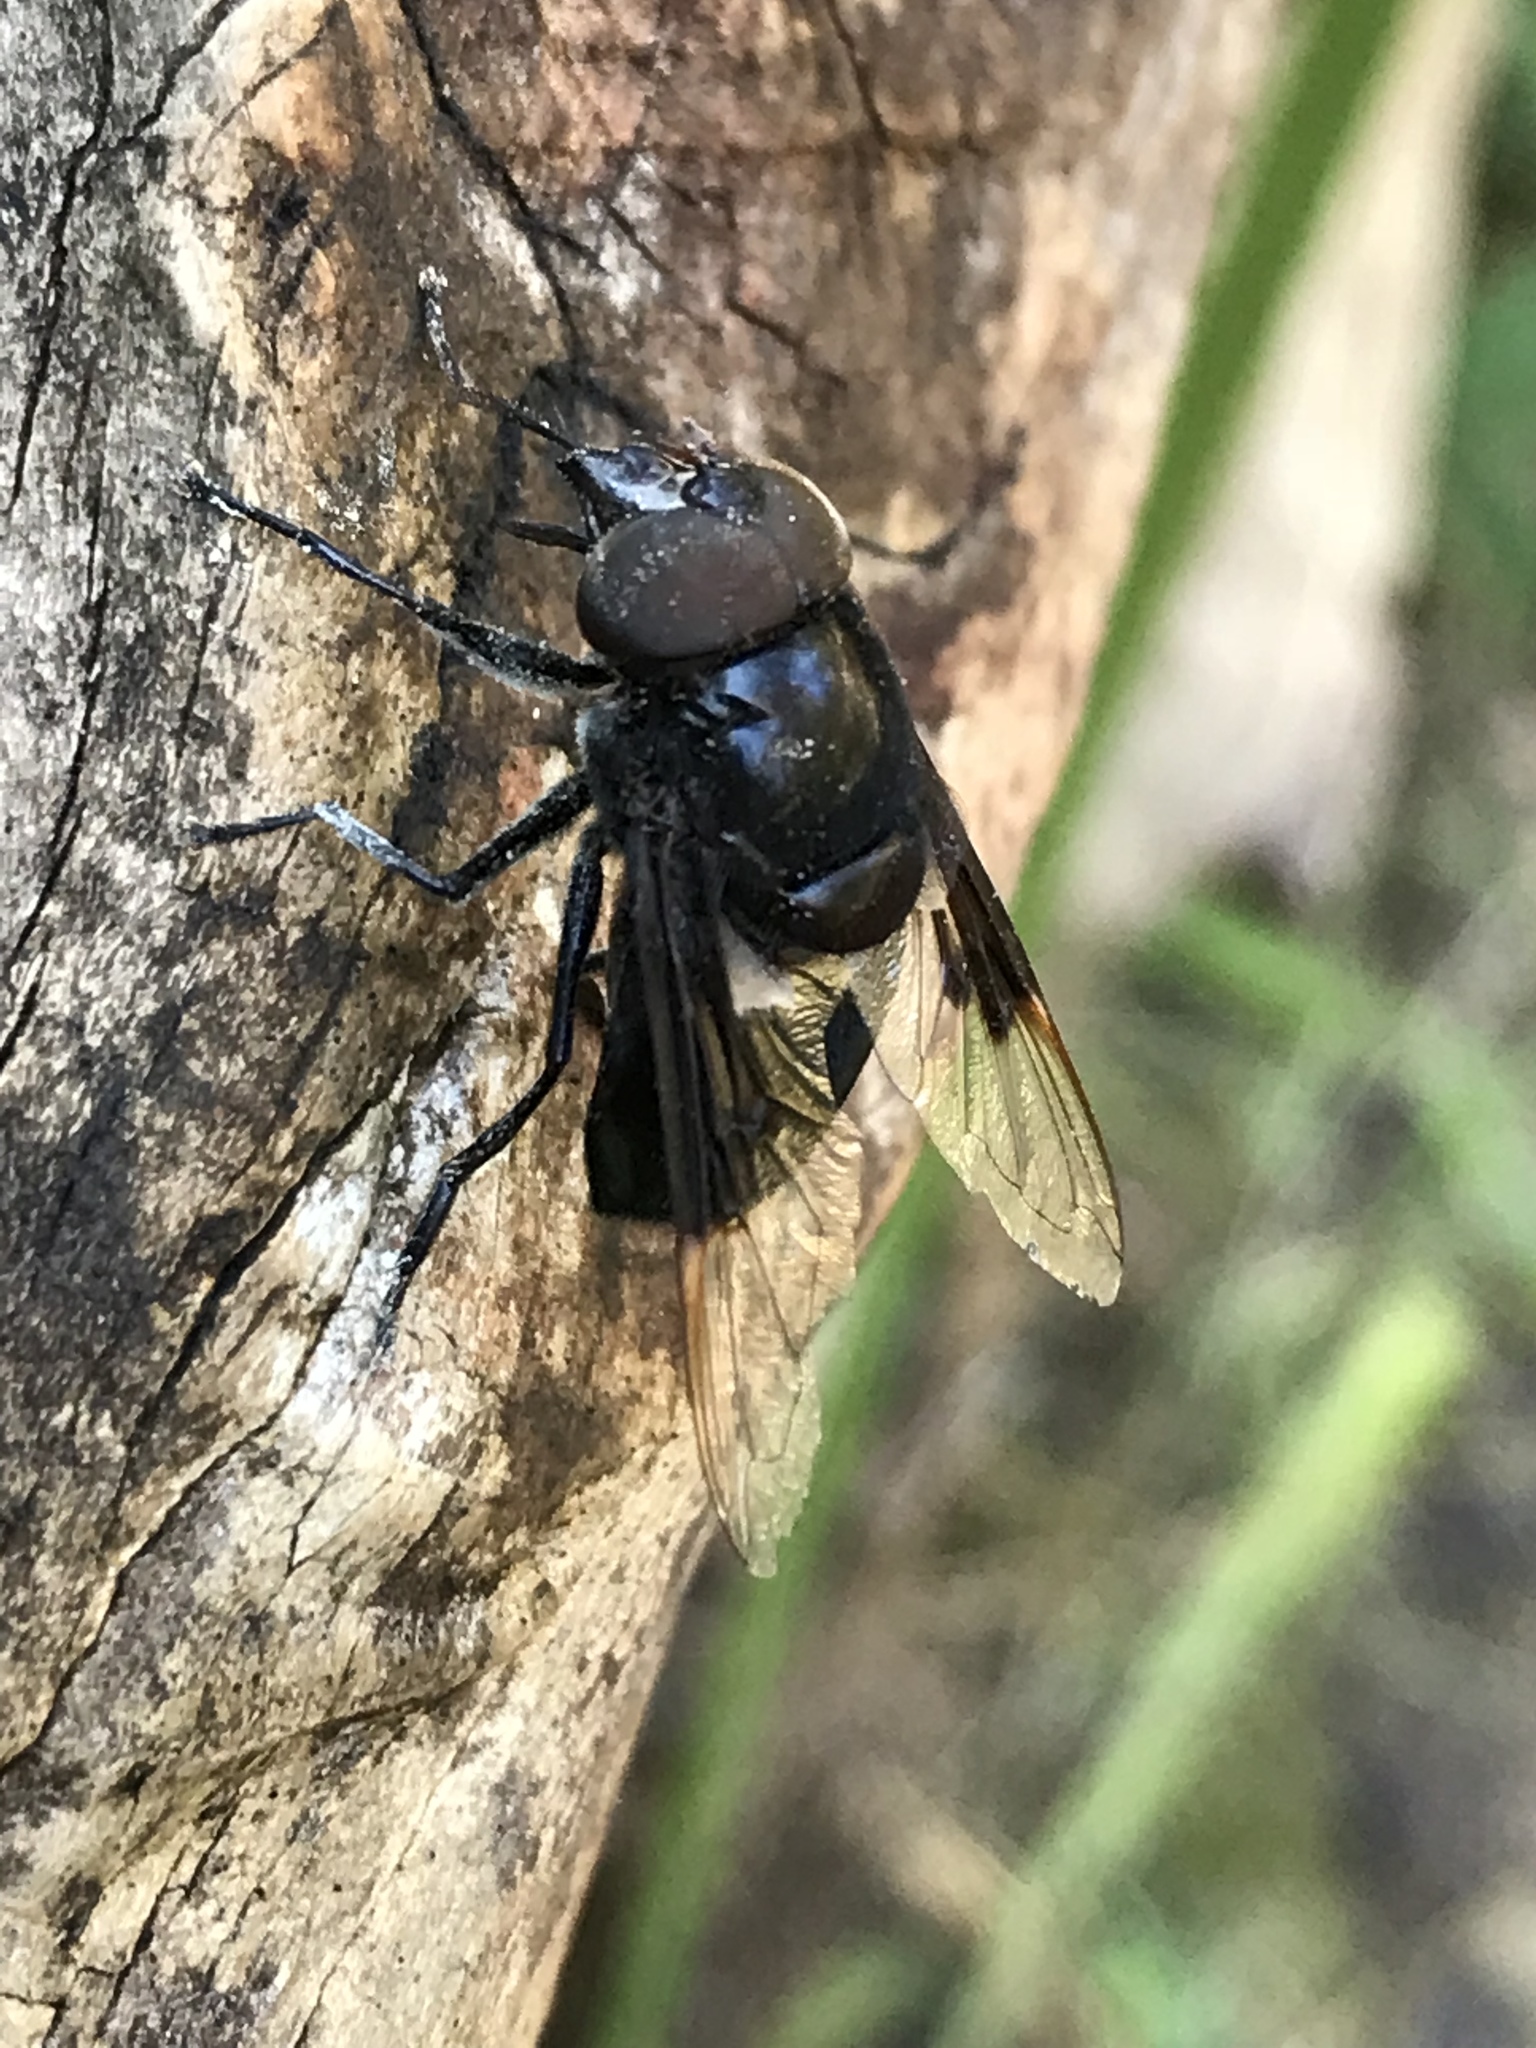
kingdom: Animalia
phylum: Arthropoda
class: Insecta
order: Diptera
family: Syrphidae
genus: Copestylum
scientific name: Copestylum mexicanum
